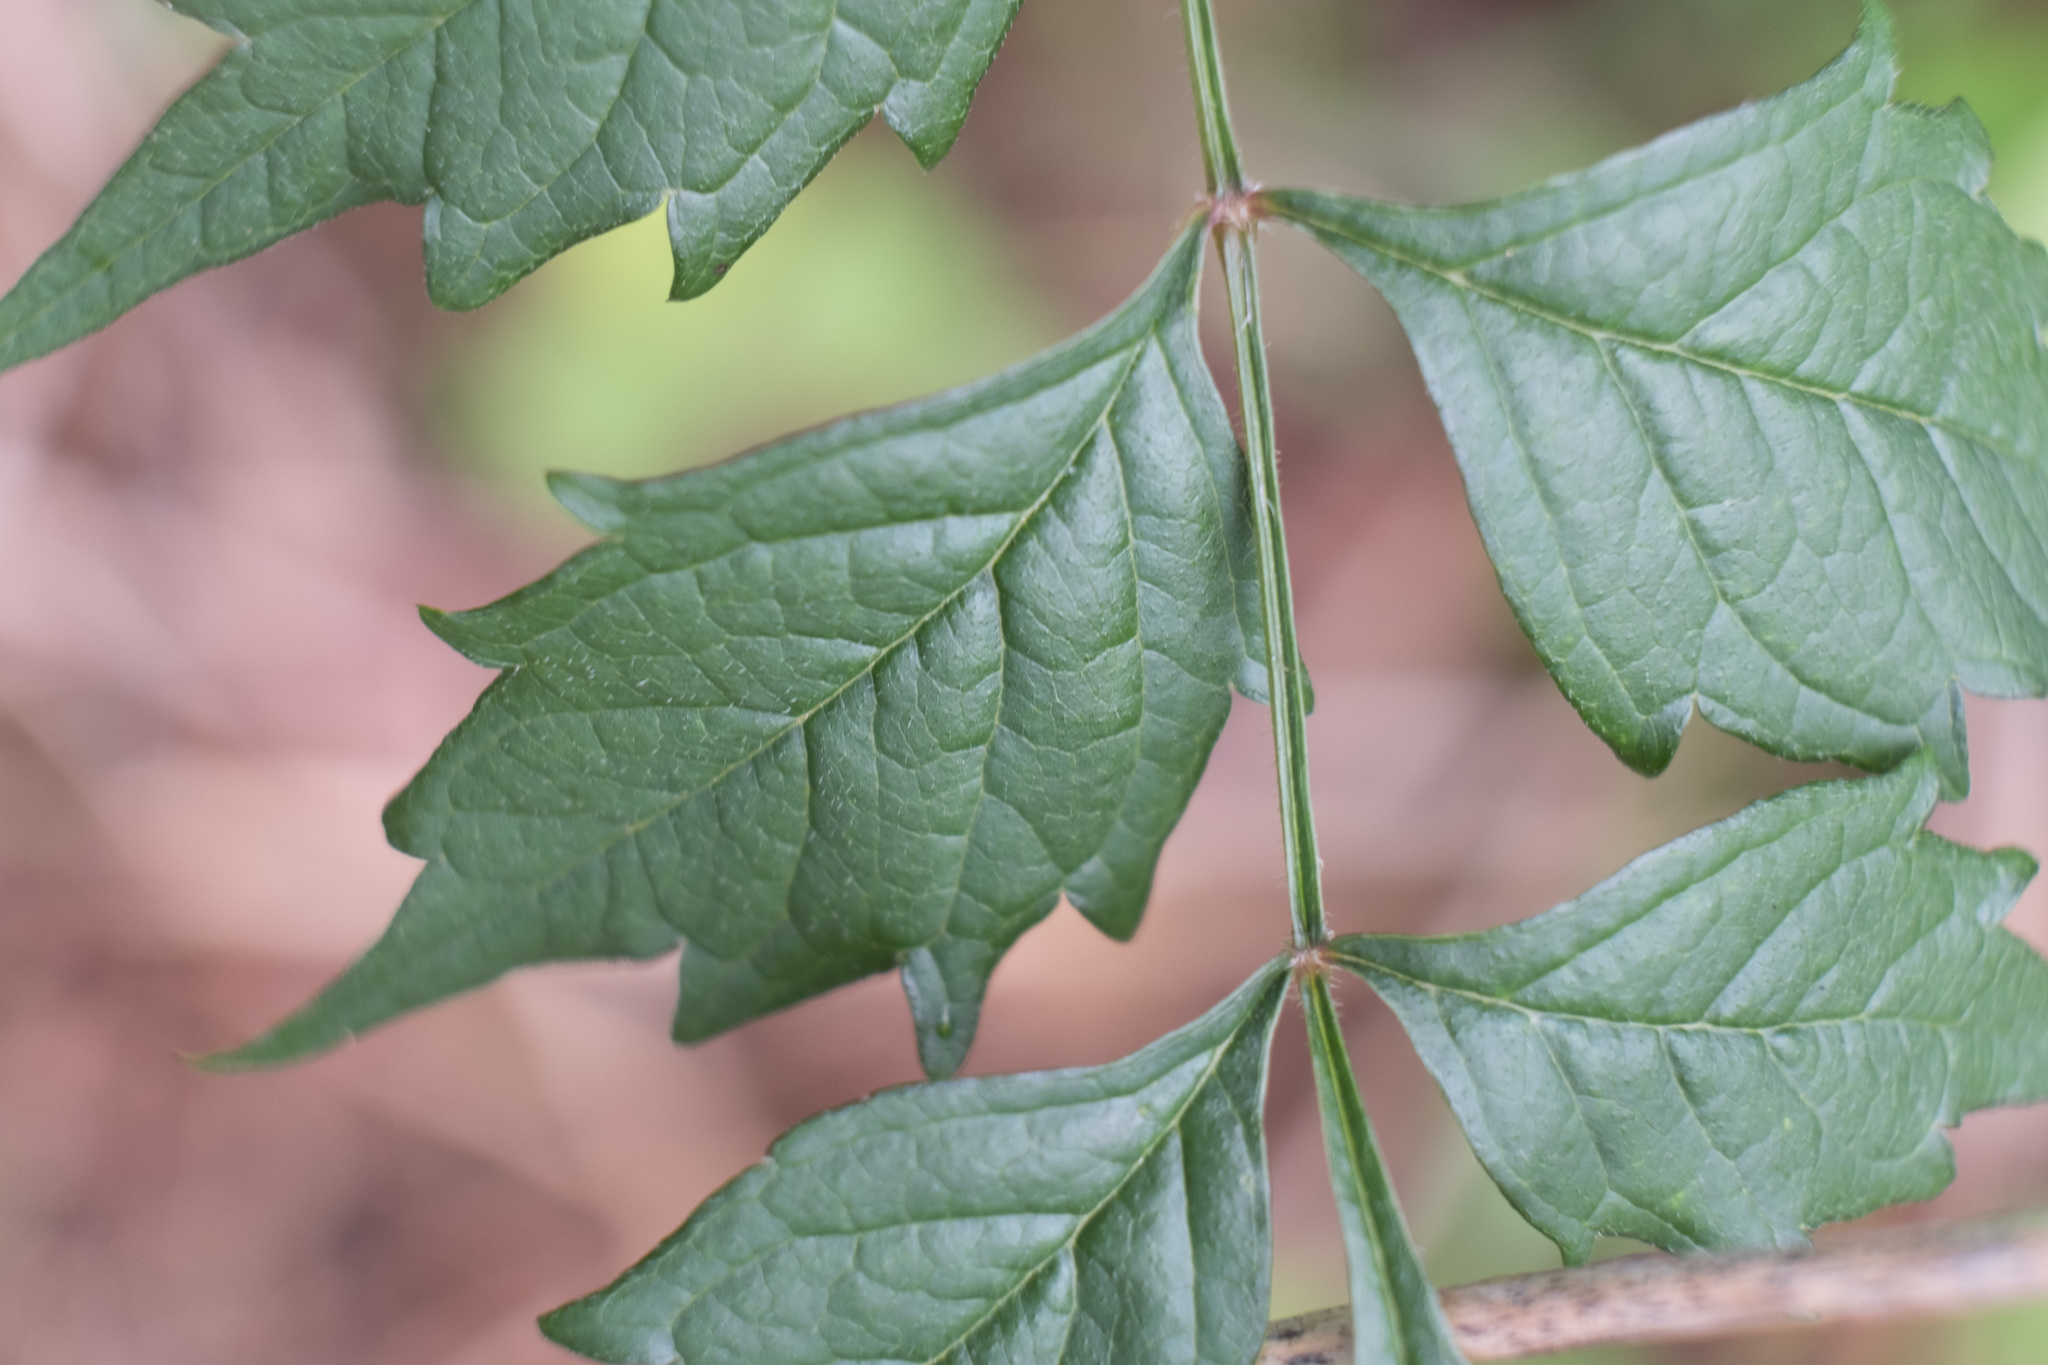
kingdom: Plantae
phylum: Tracheophyta
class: Magnoliopsida
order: Lamiales
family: Bignoniaceae
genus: Campsis
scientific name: Campsis radicans
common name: Trumpet-creeper
